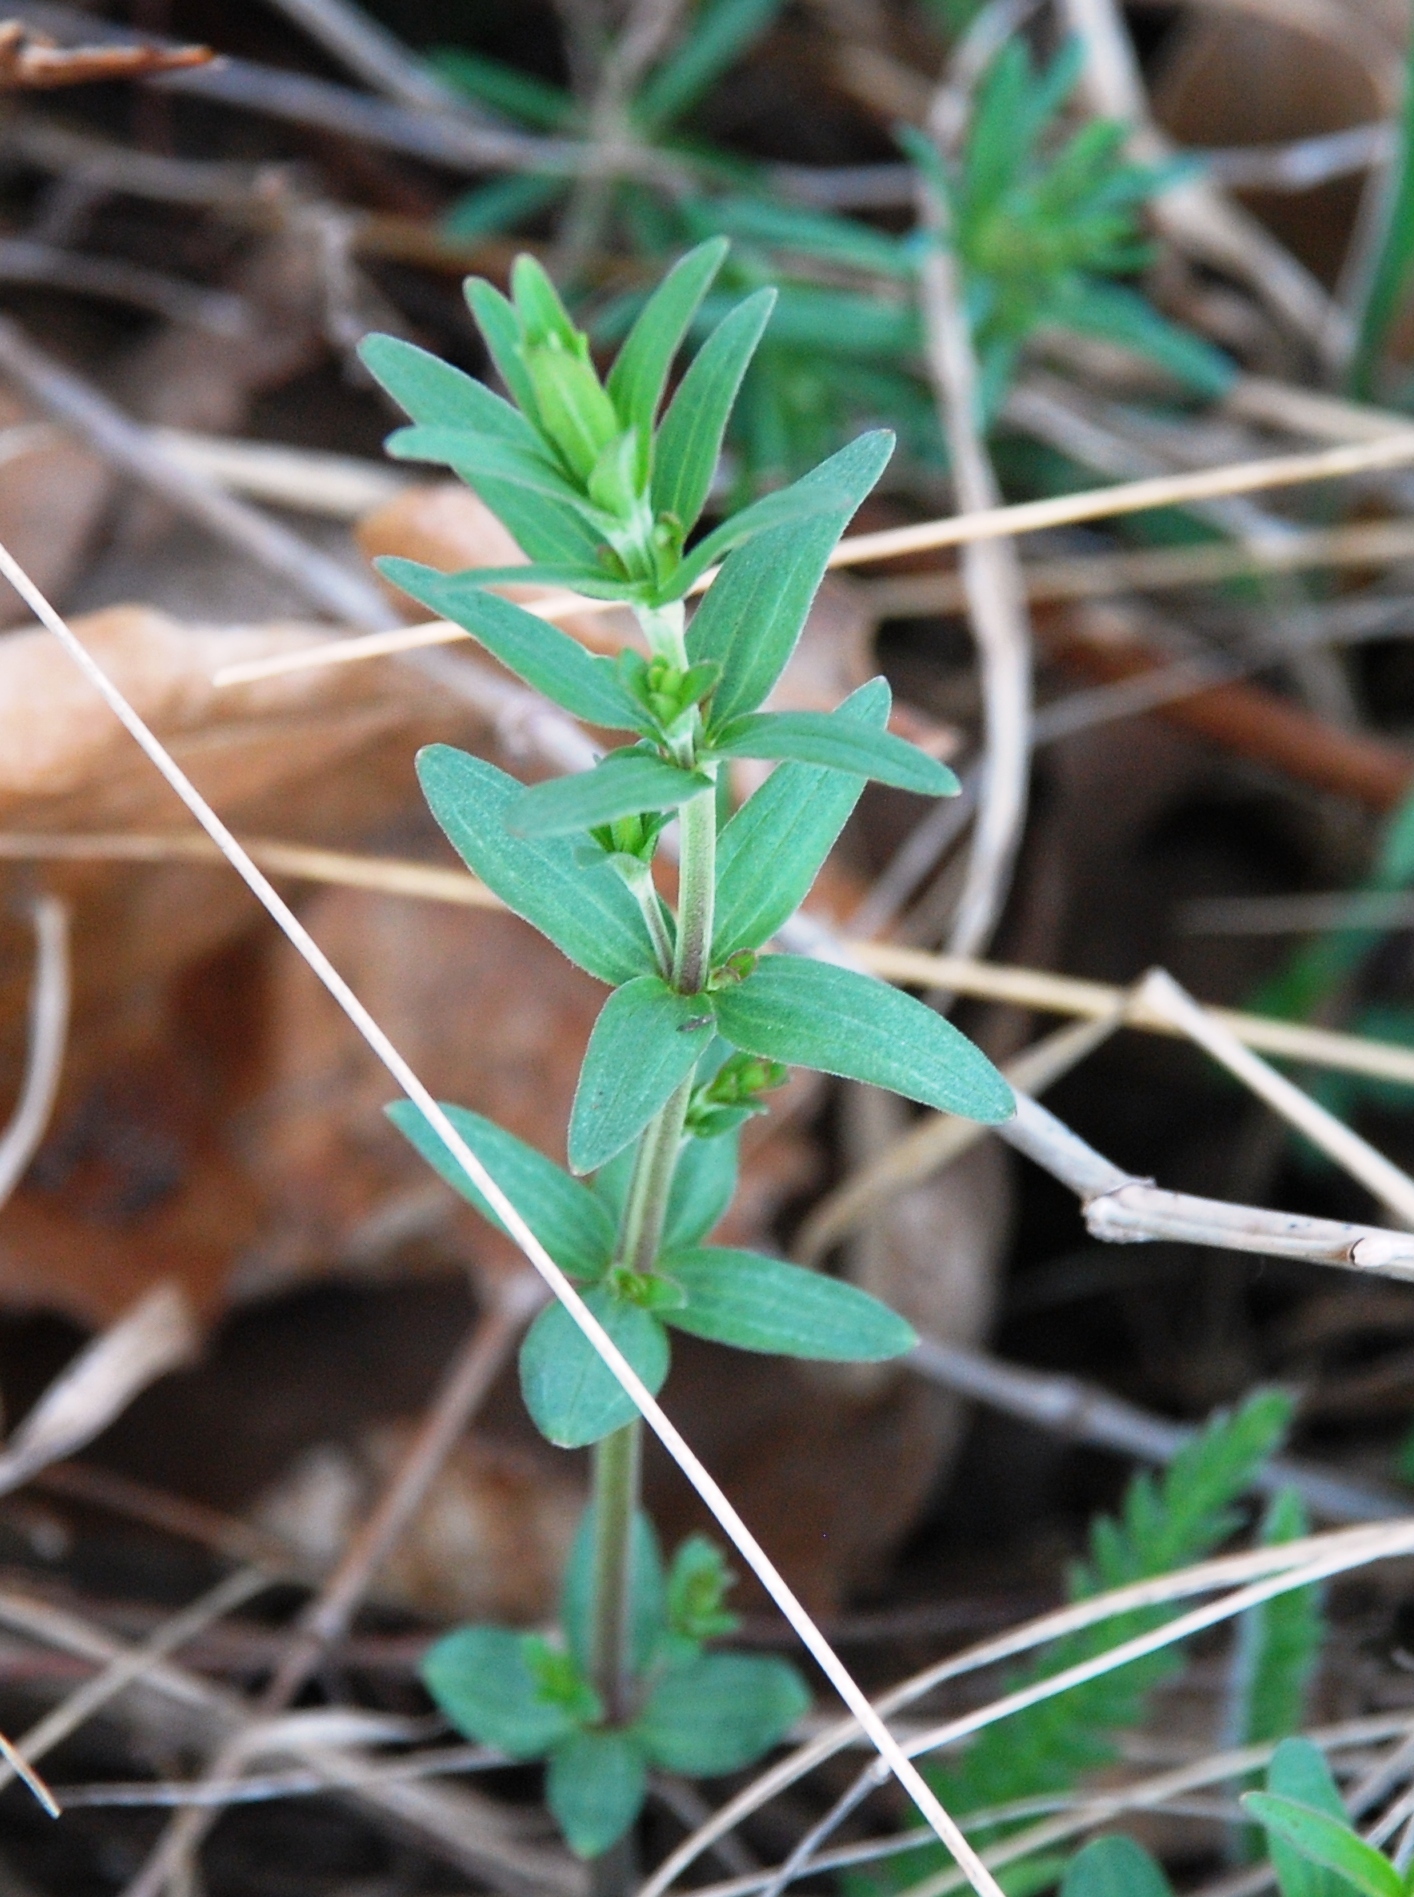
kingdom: Plantae
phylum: Tracheophyta
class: Magnoliopsida
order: Gentianales
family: Rubiaceae
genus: Galium
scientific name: Galium boreale
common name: Northern bedstraw
